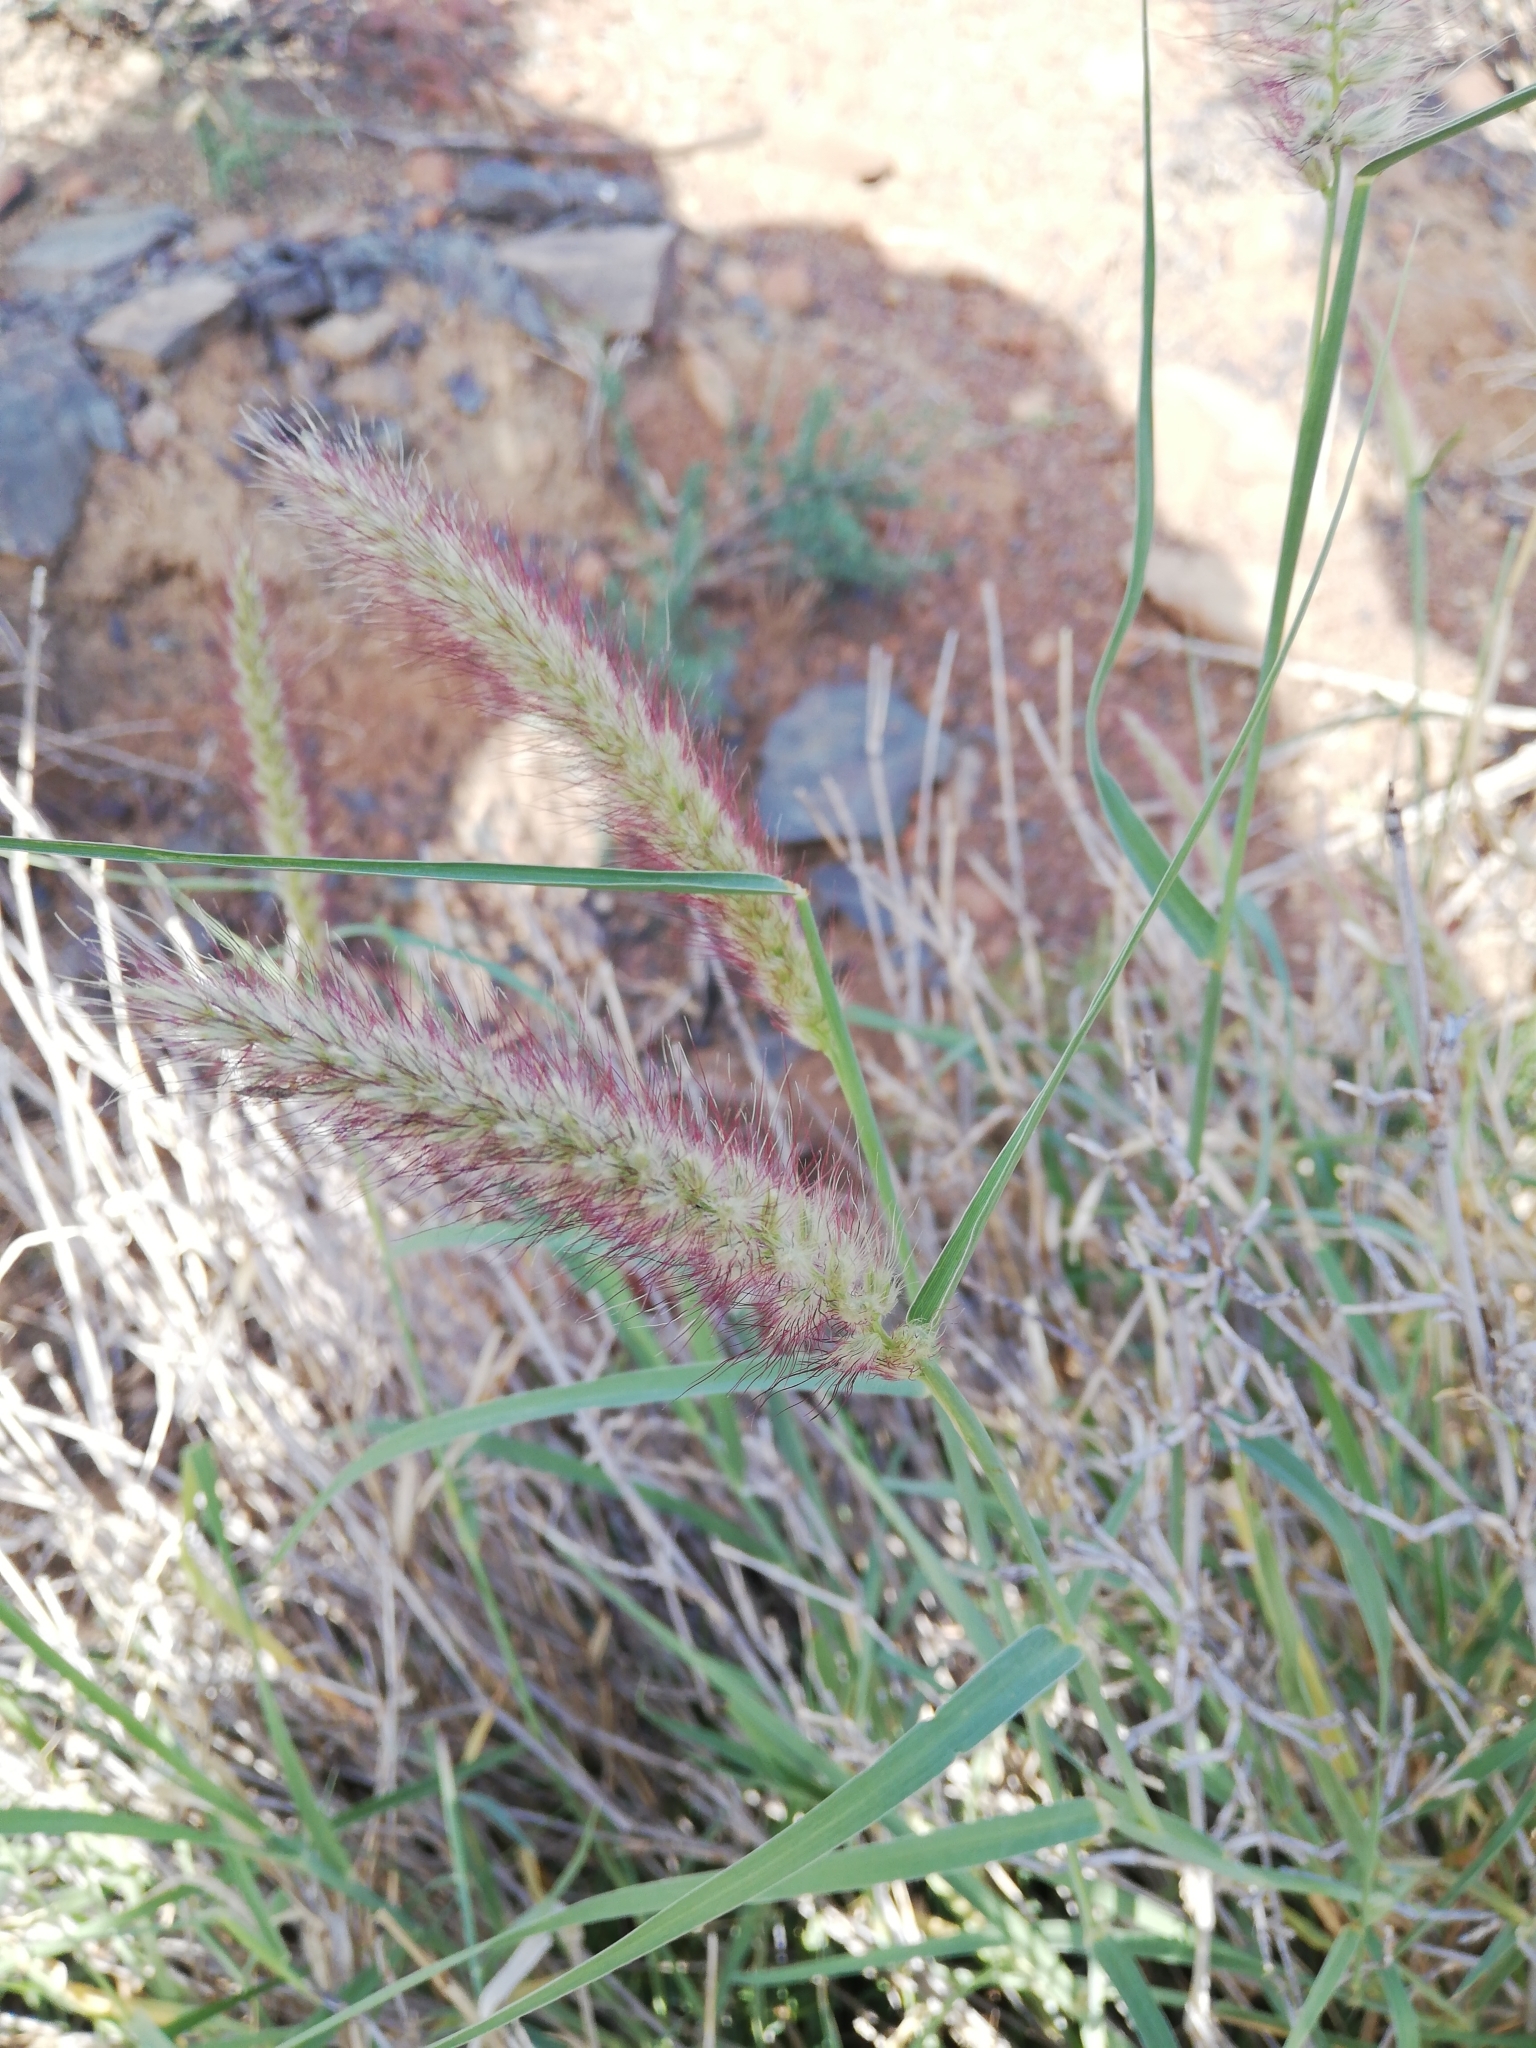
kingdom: Plantae
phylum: Tracheophyta
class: Liliopsida
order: Poales
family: Poaceae
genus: Cenchrus
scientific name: Cenchrus ciliaris
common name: Buffelgrass
